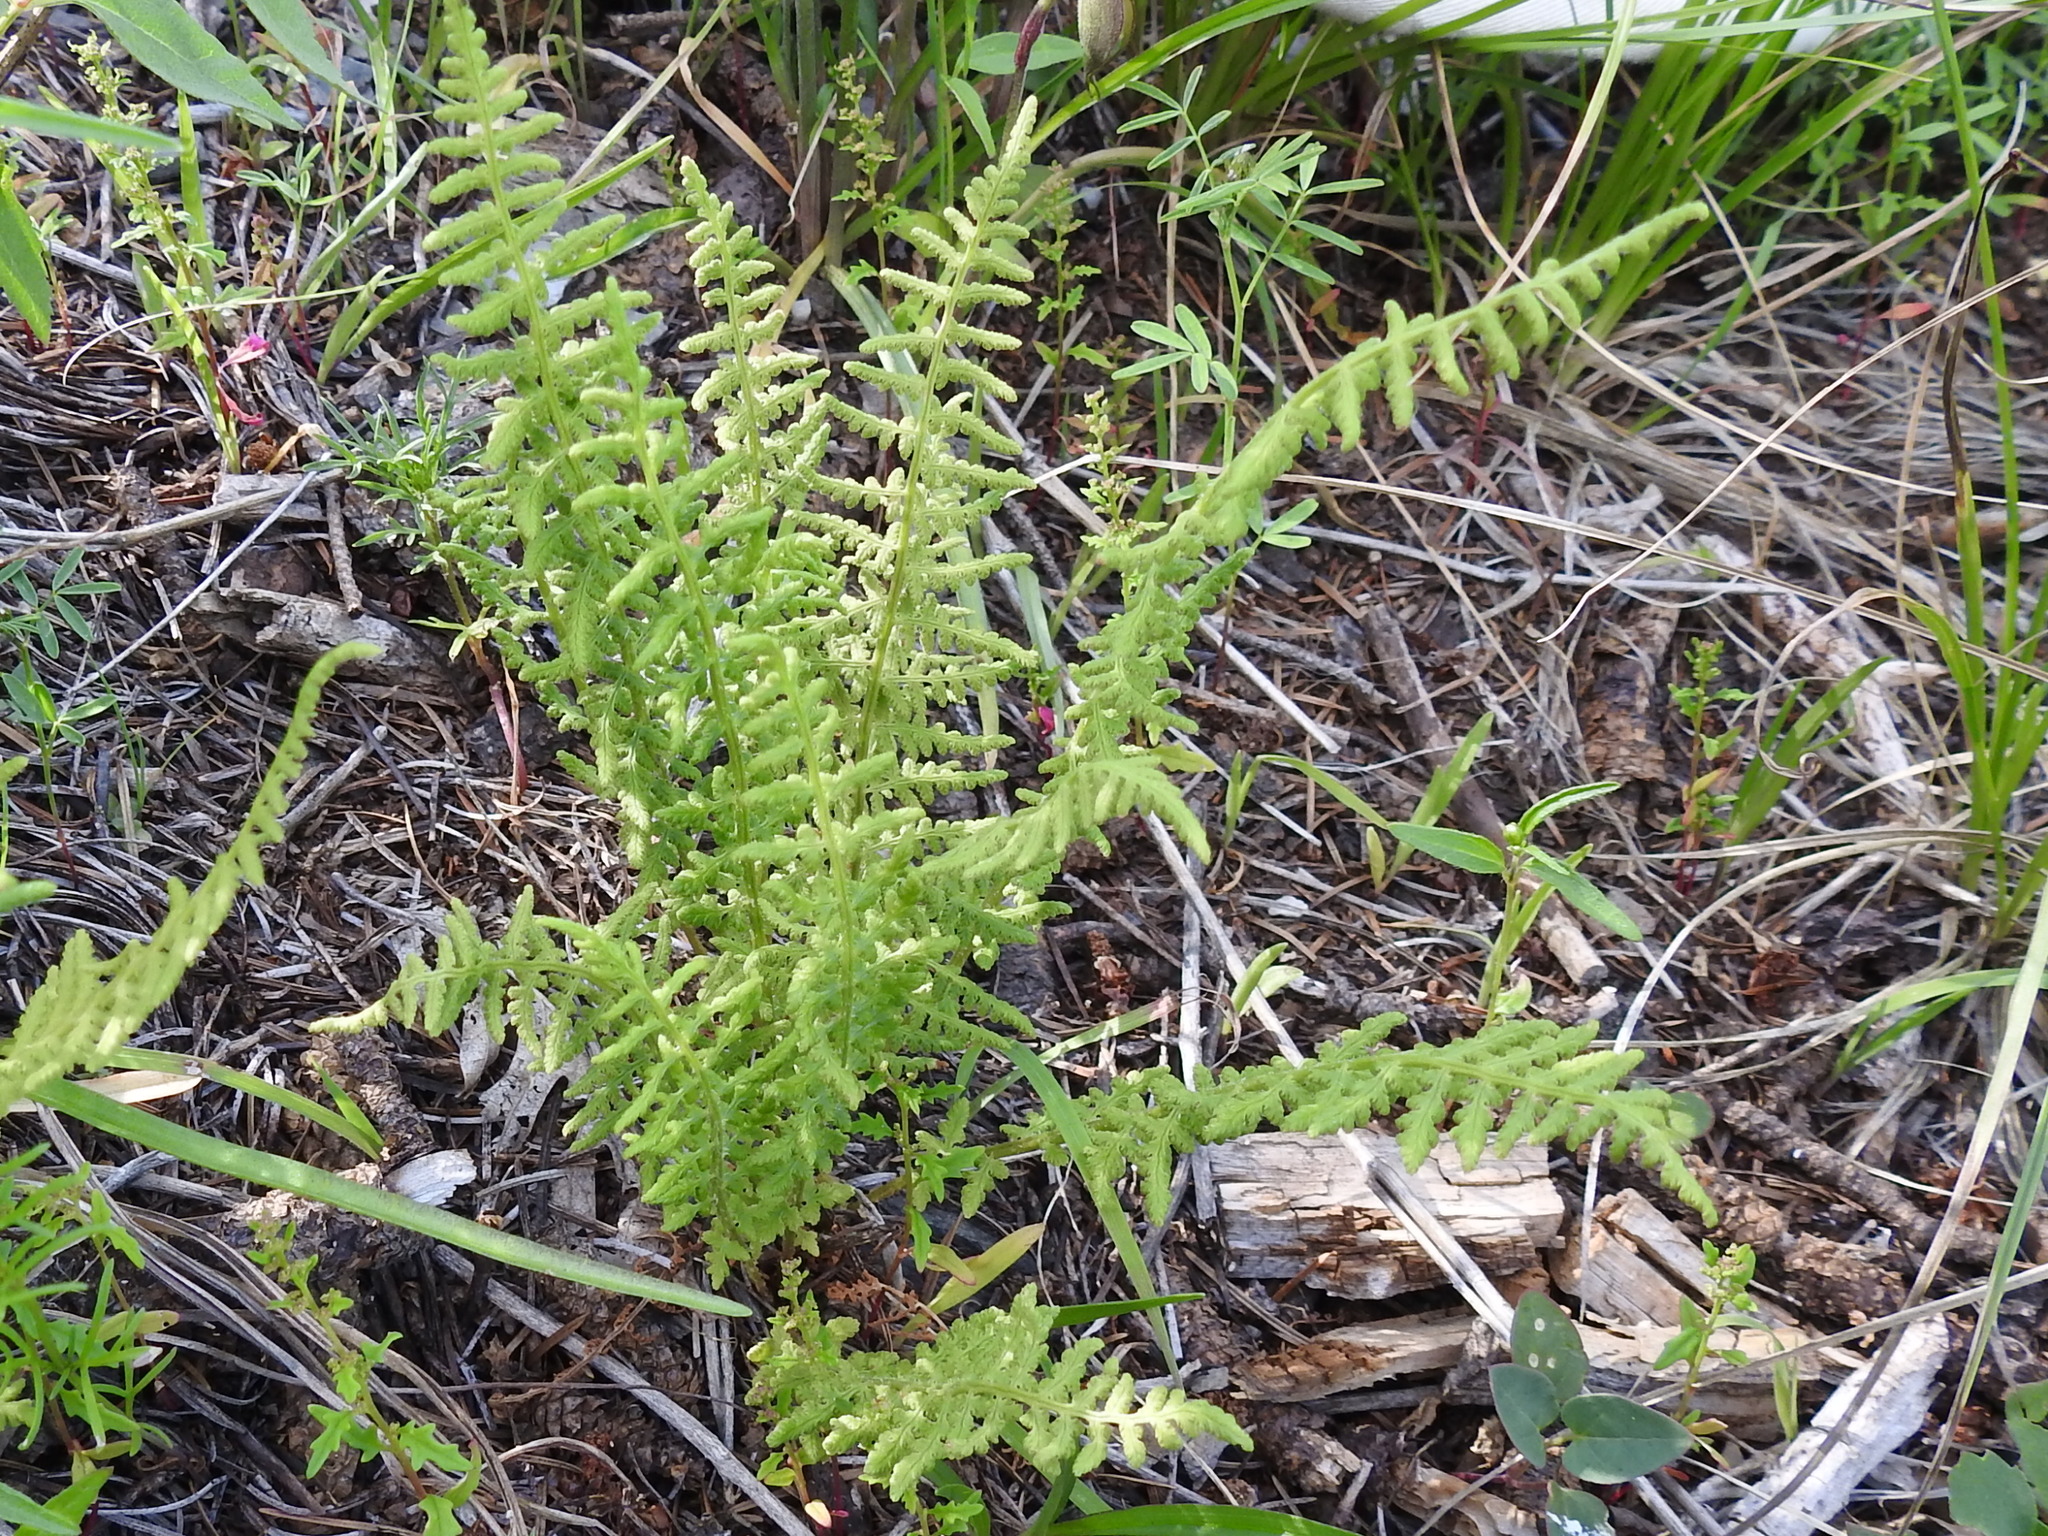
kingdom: Plantae
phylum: Tracheophyta
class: Polypodiopsida
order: Polypodiales
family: Woodsiaceae
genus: Physematium
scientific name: Physematium phillipsii
